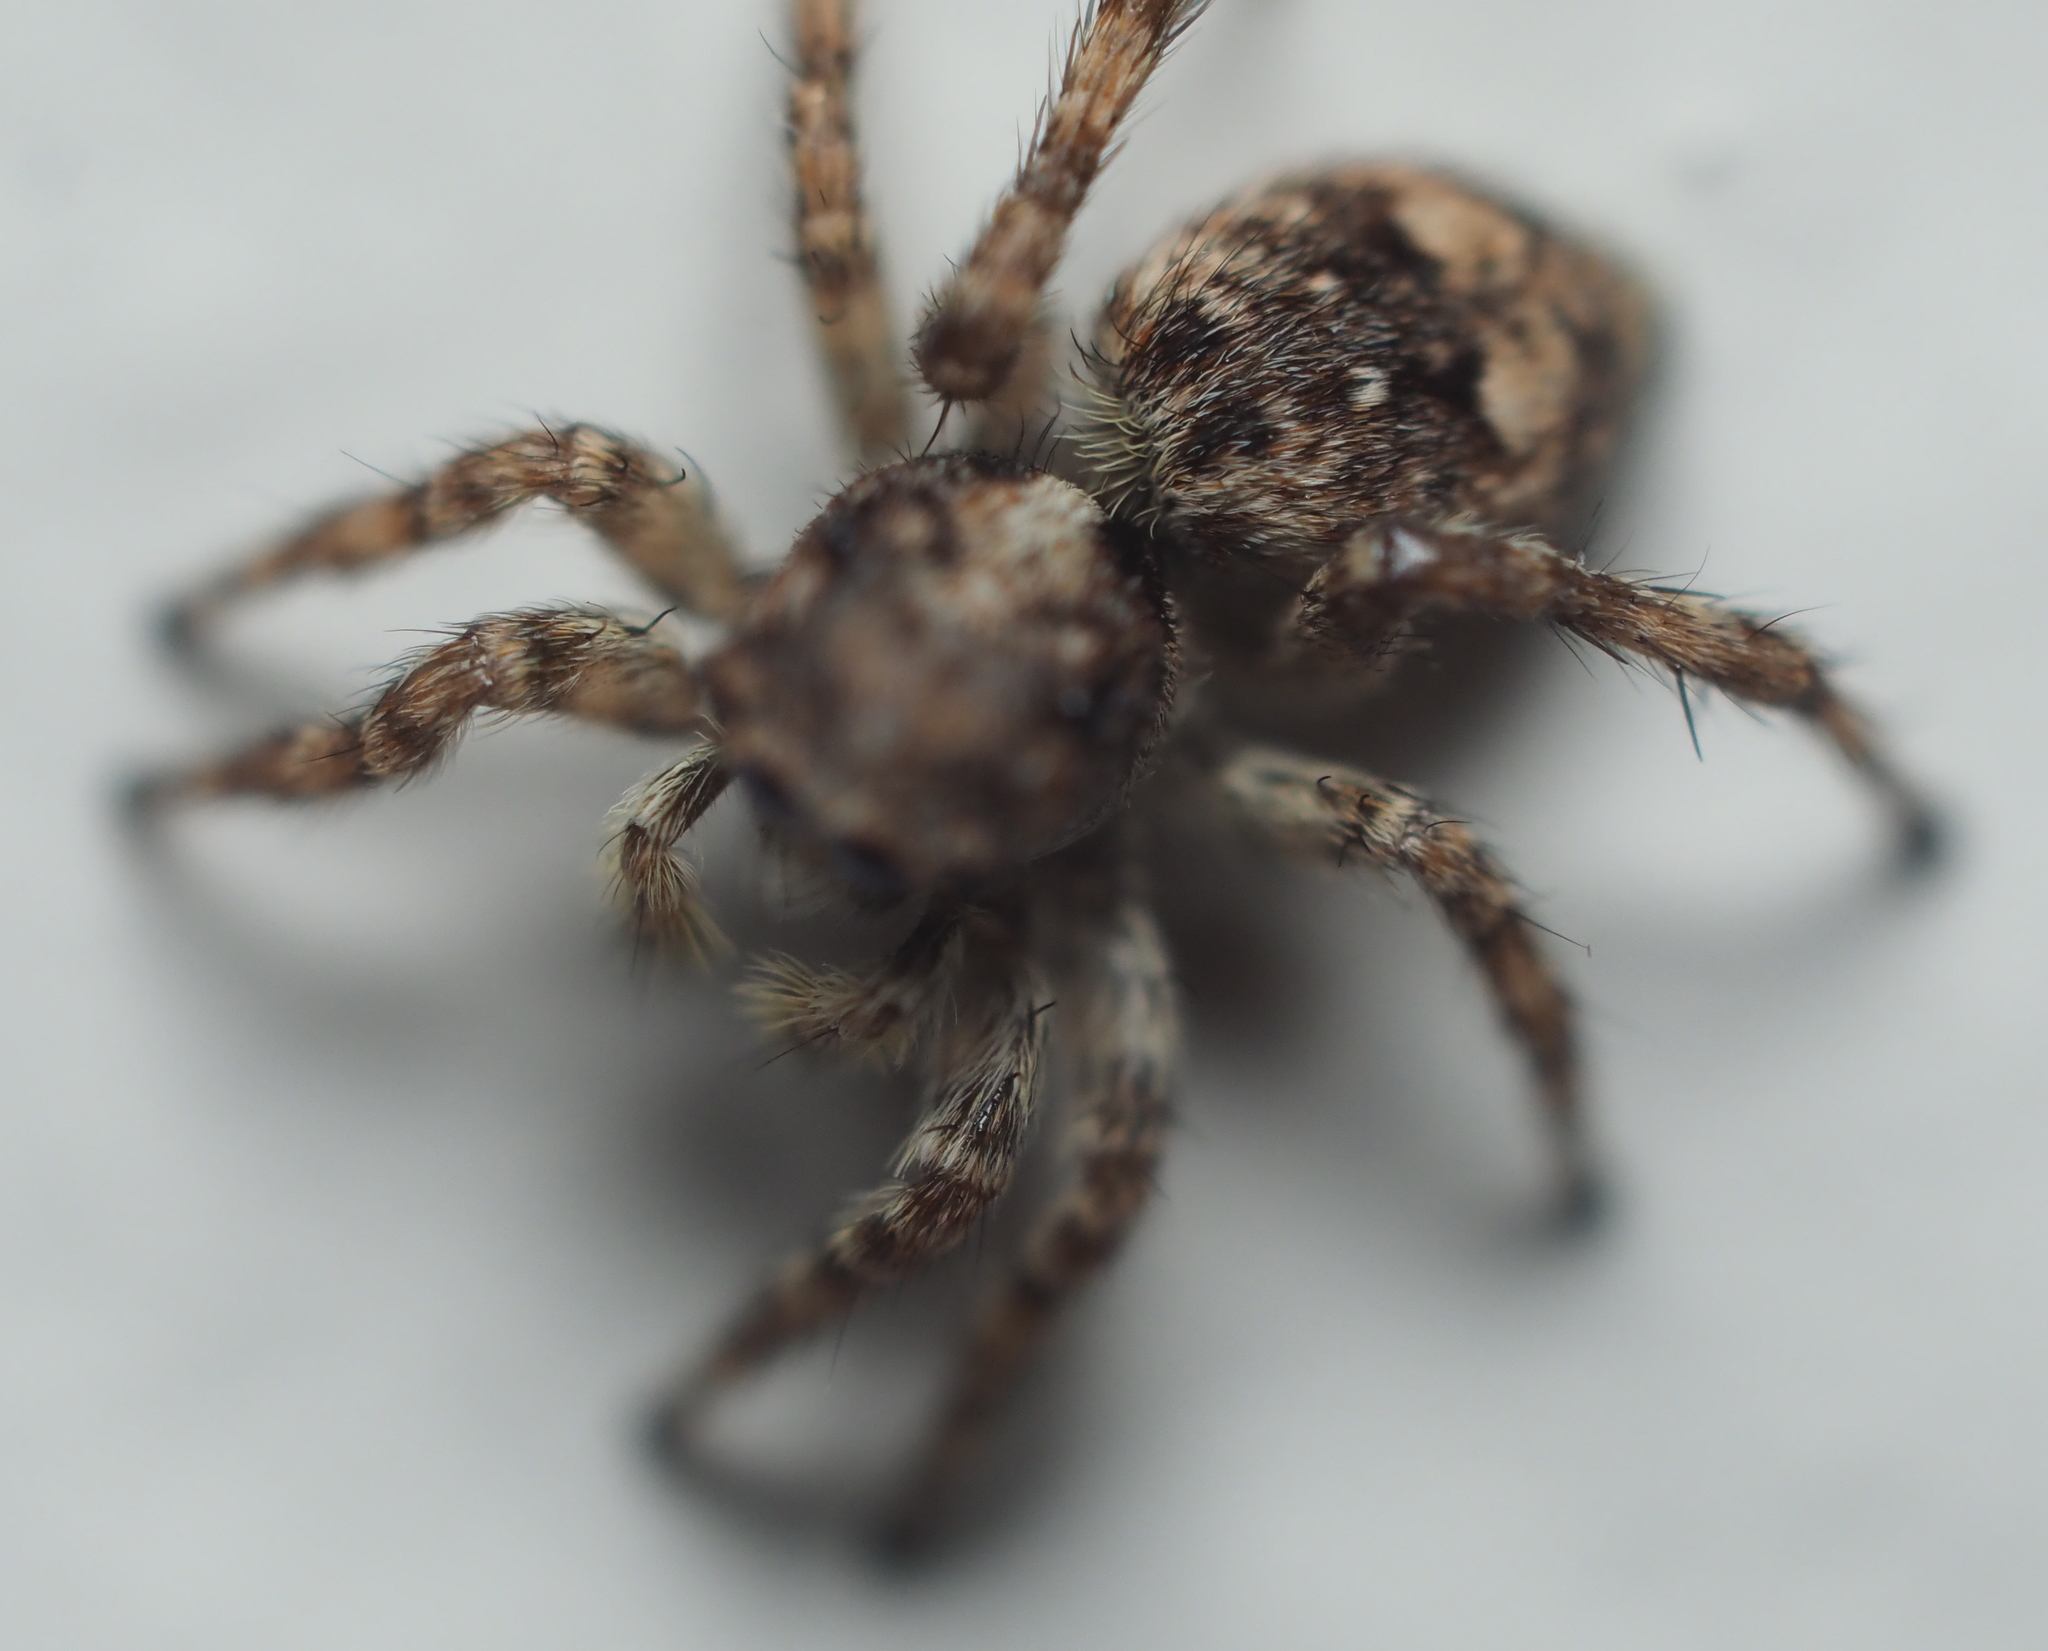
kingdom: Animalia
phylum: Arthropoda
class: Arachnida
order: Araneae
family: Salticidae
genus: Attulus
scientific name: Attulus fasciger
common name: Asiatic wall jumping spider
